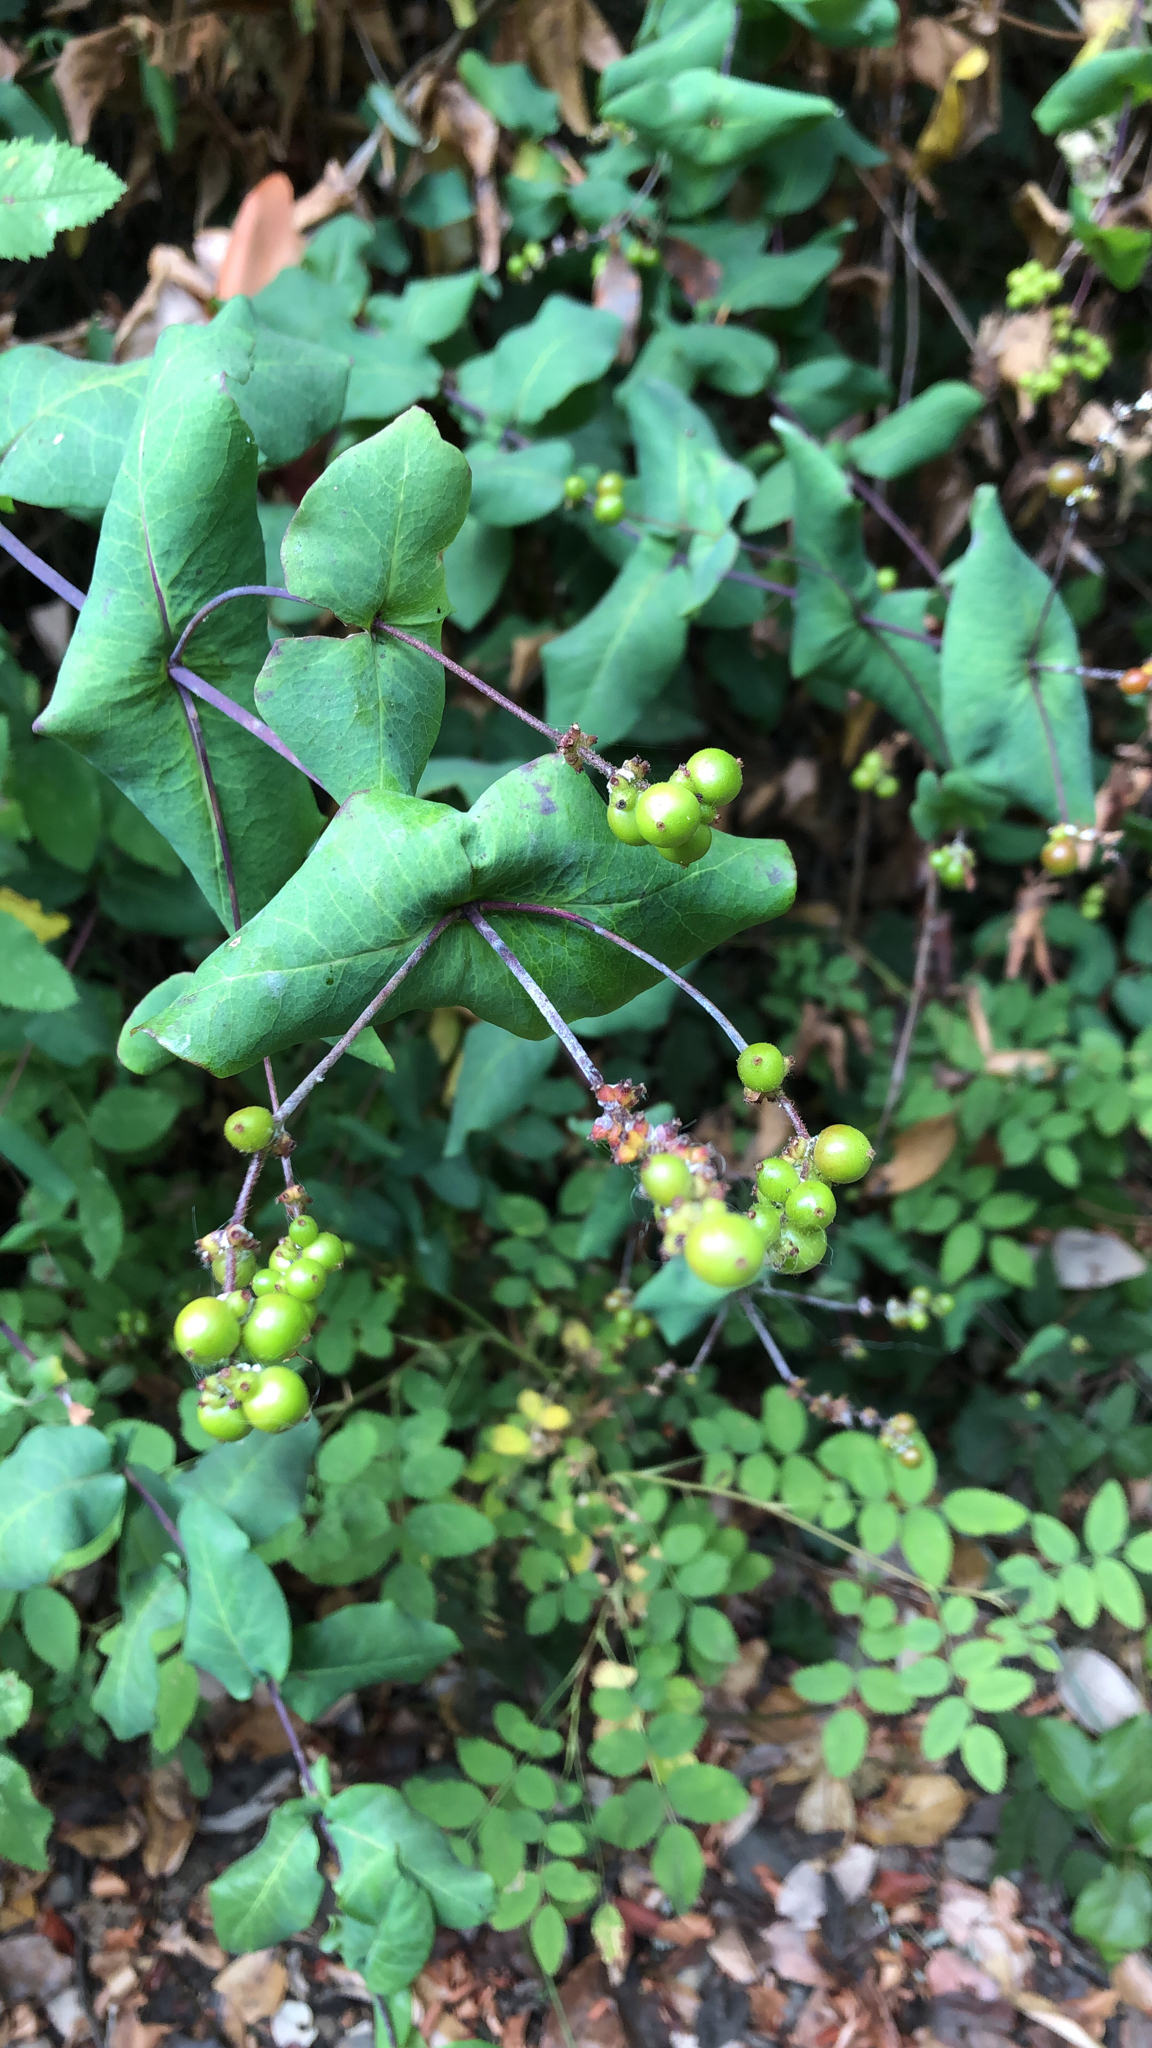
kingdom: Plantae
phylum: Tracheophyta
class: Magnoliopsida
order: Dipsacales
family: Caprifoliaceae
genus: Lonicera
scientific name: Lonicera hispidula
